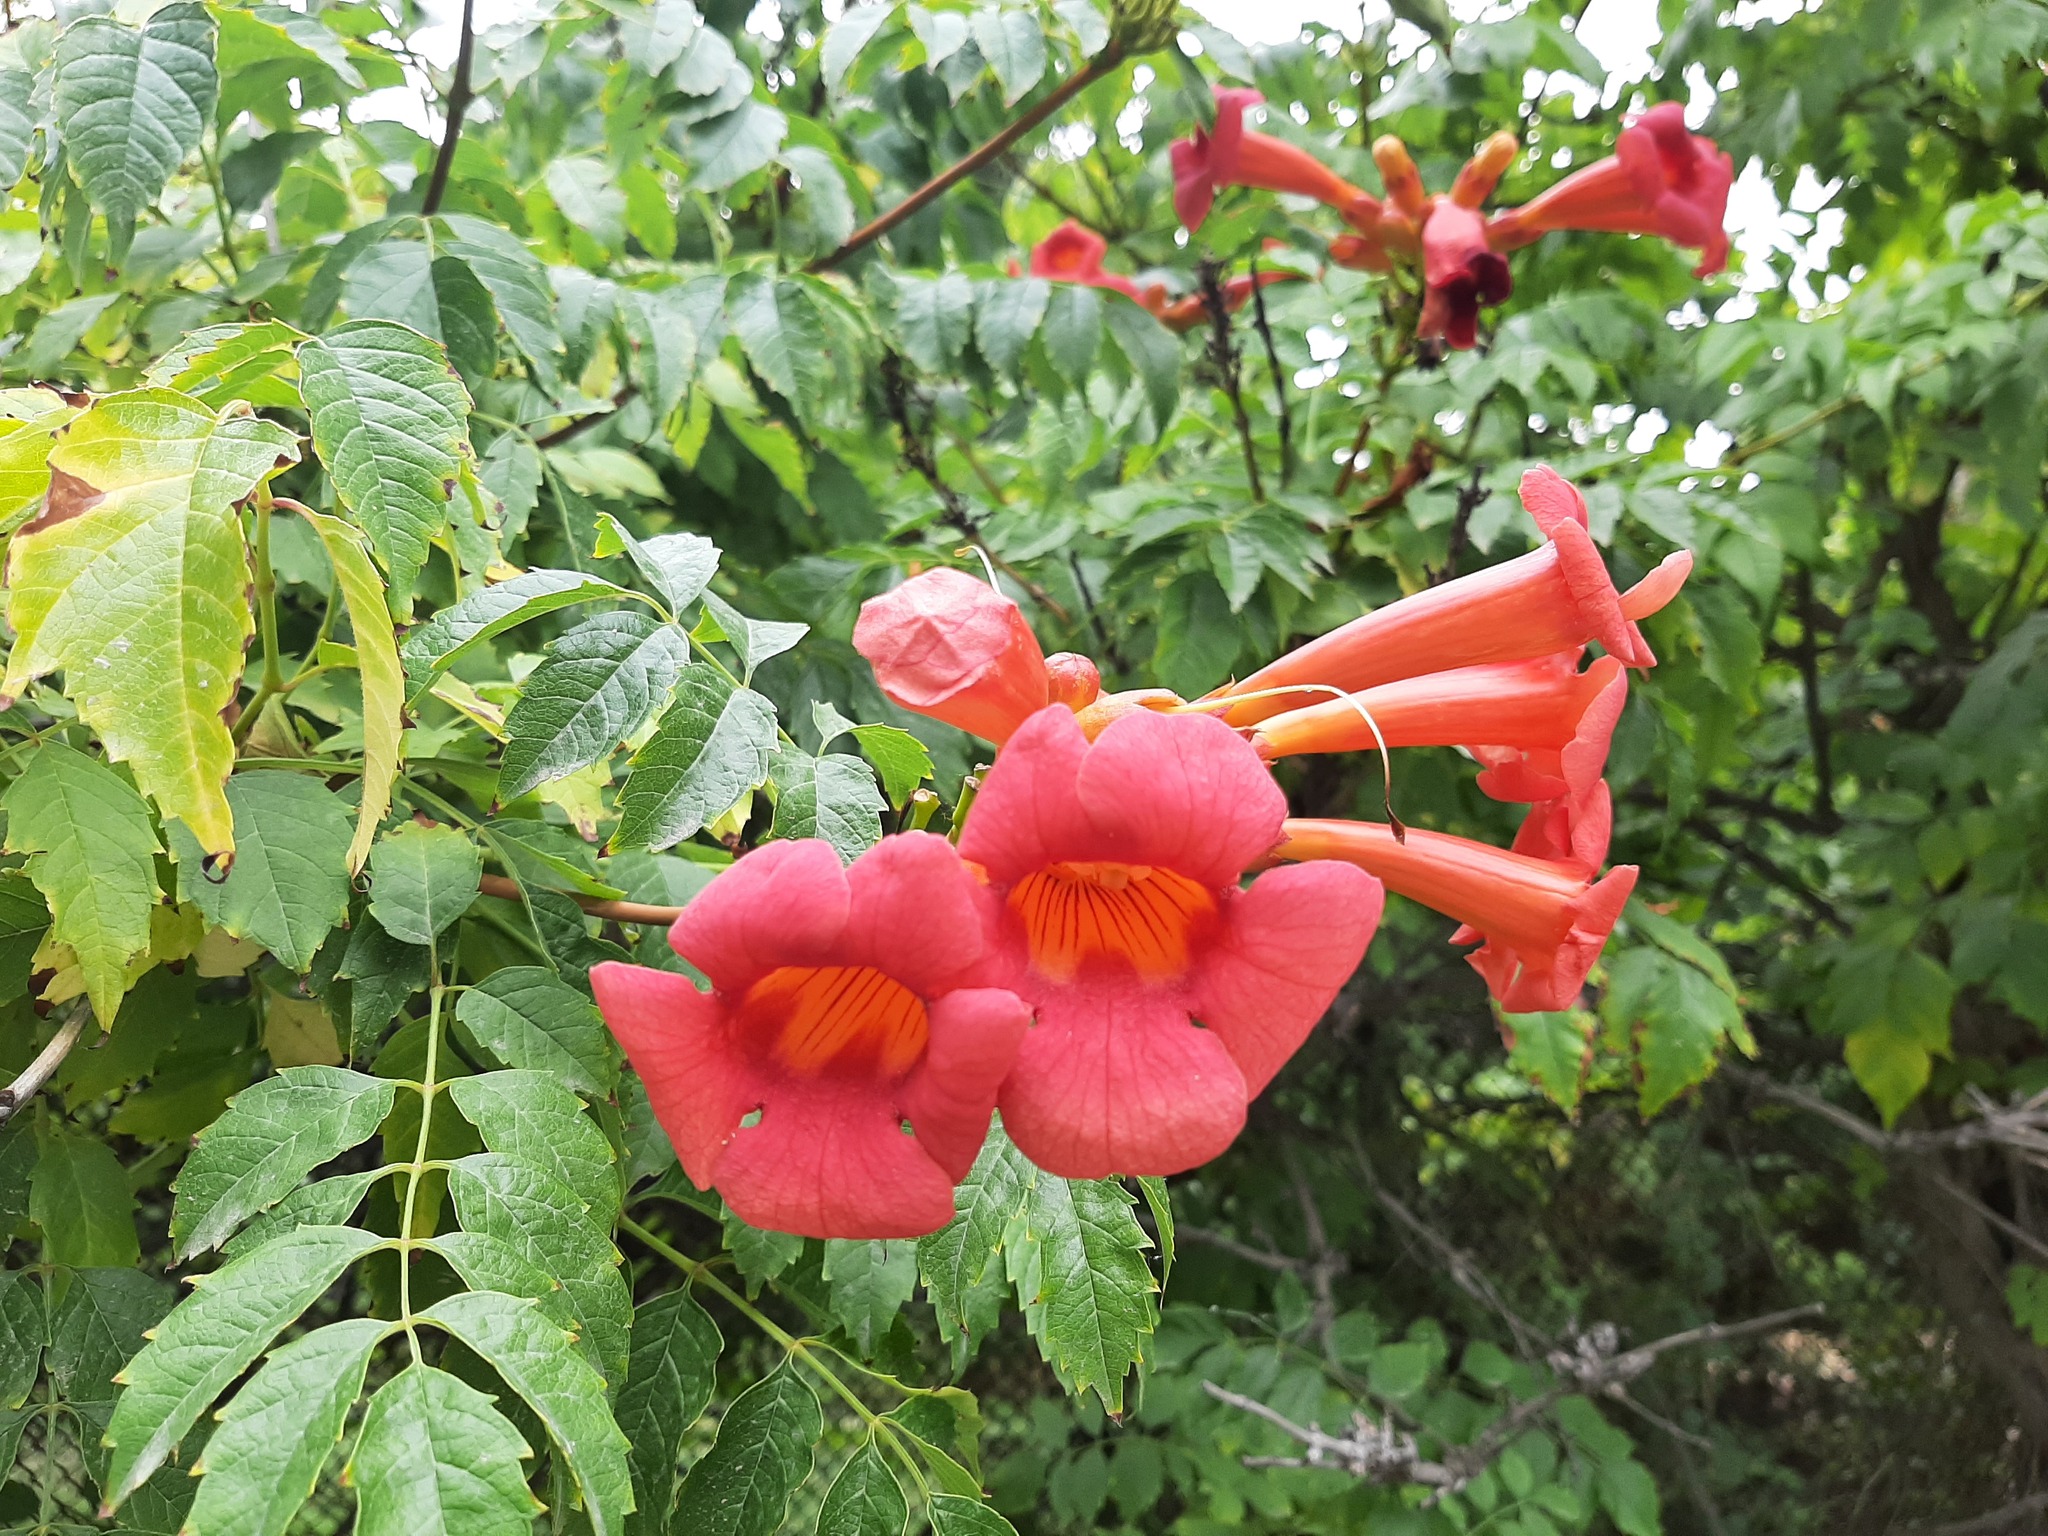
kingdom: Plantae
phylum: Tracheophyta
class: Magnoliopsida
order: Lamiales
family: Bignoniaceae
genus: Campsis
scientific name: Campsis radicans
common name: Trumpet-creeper
